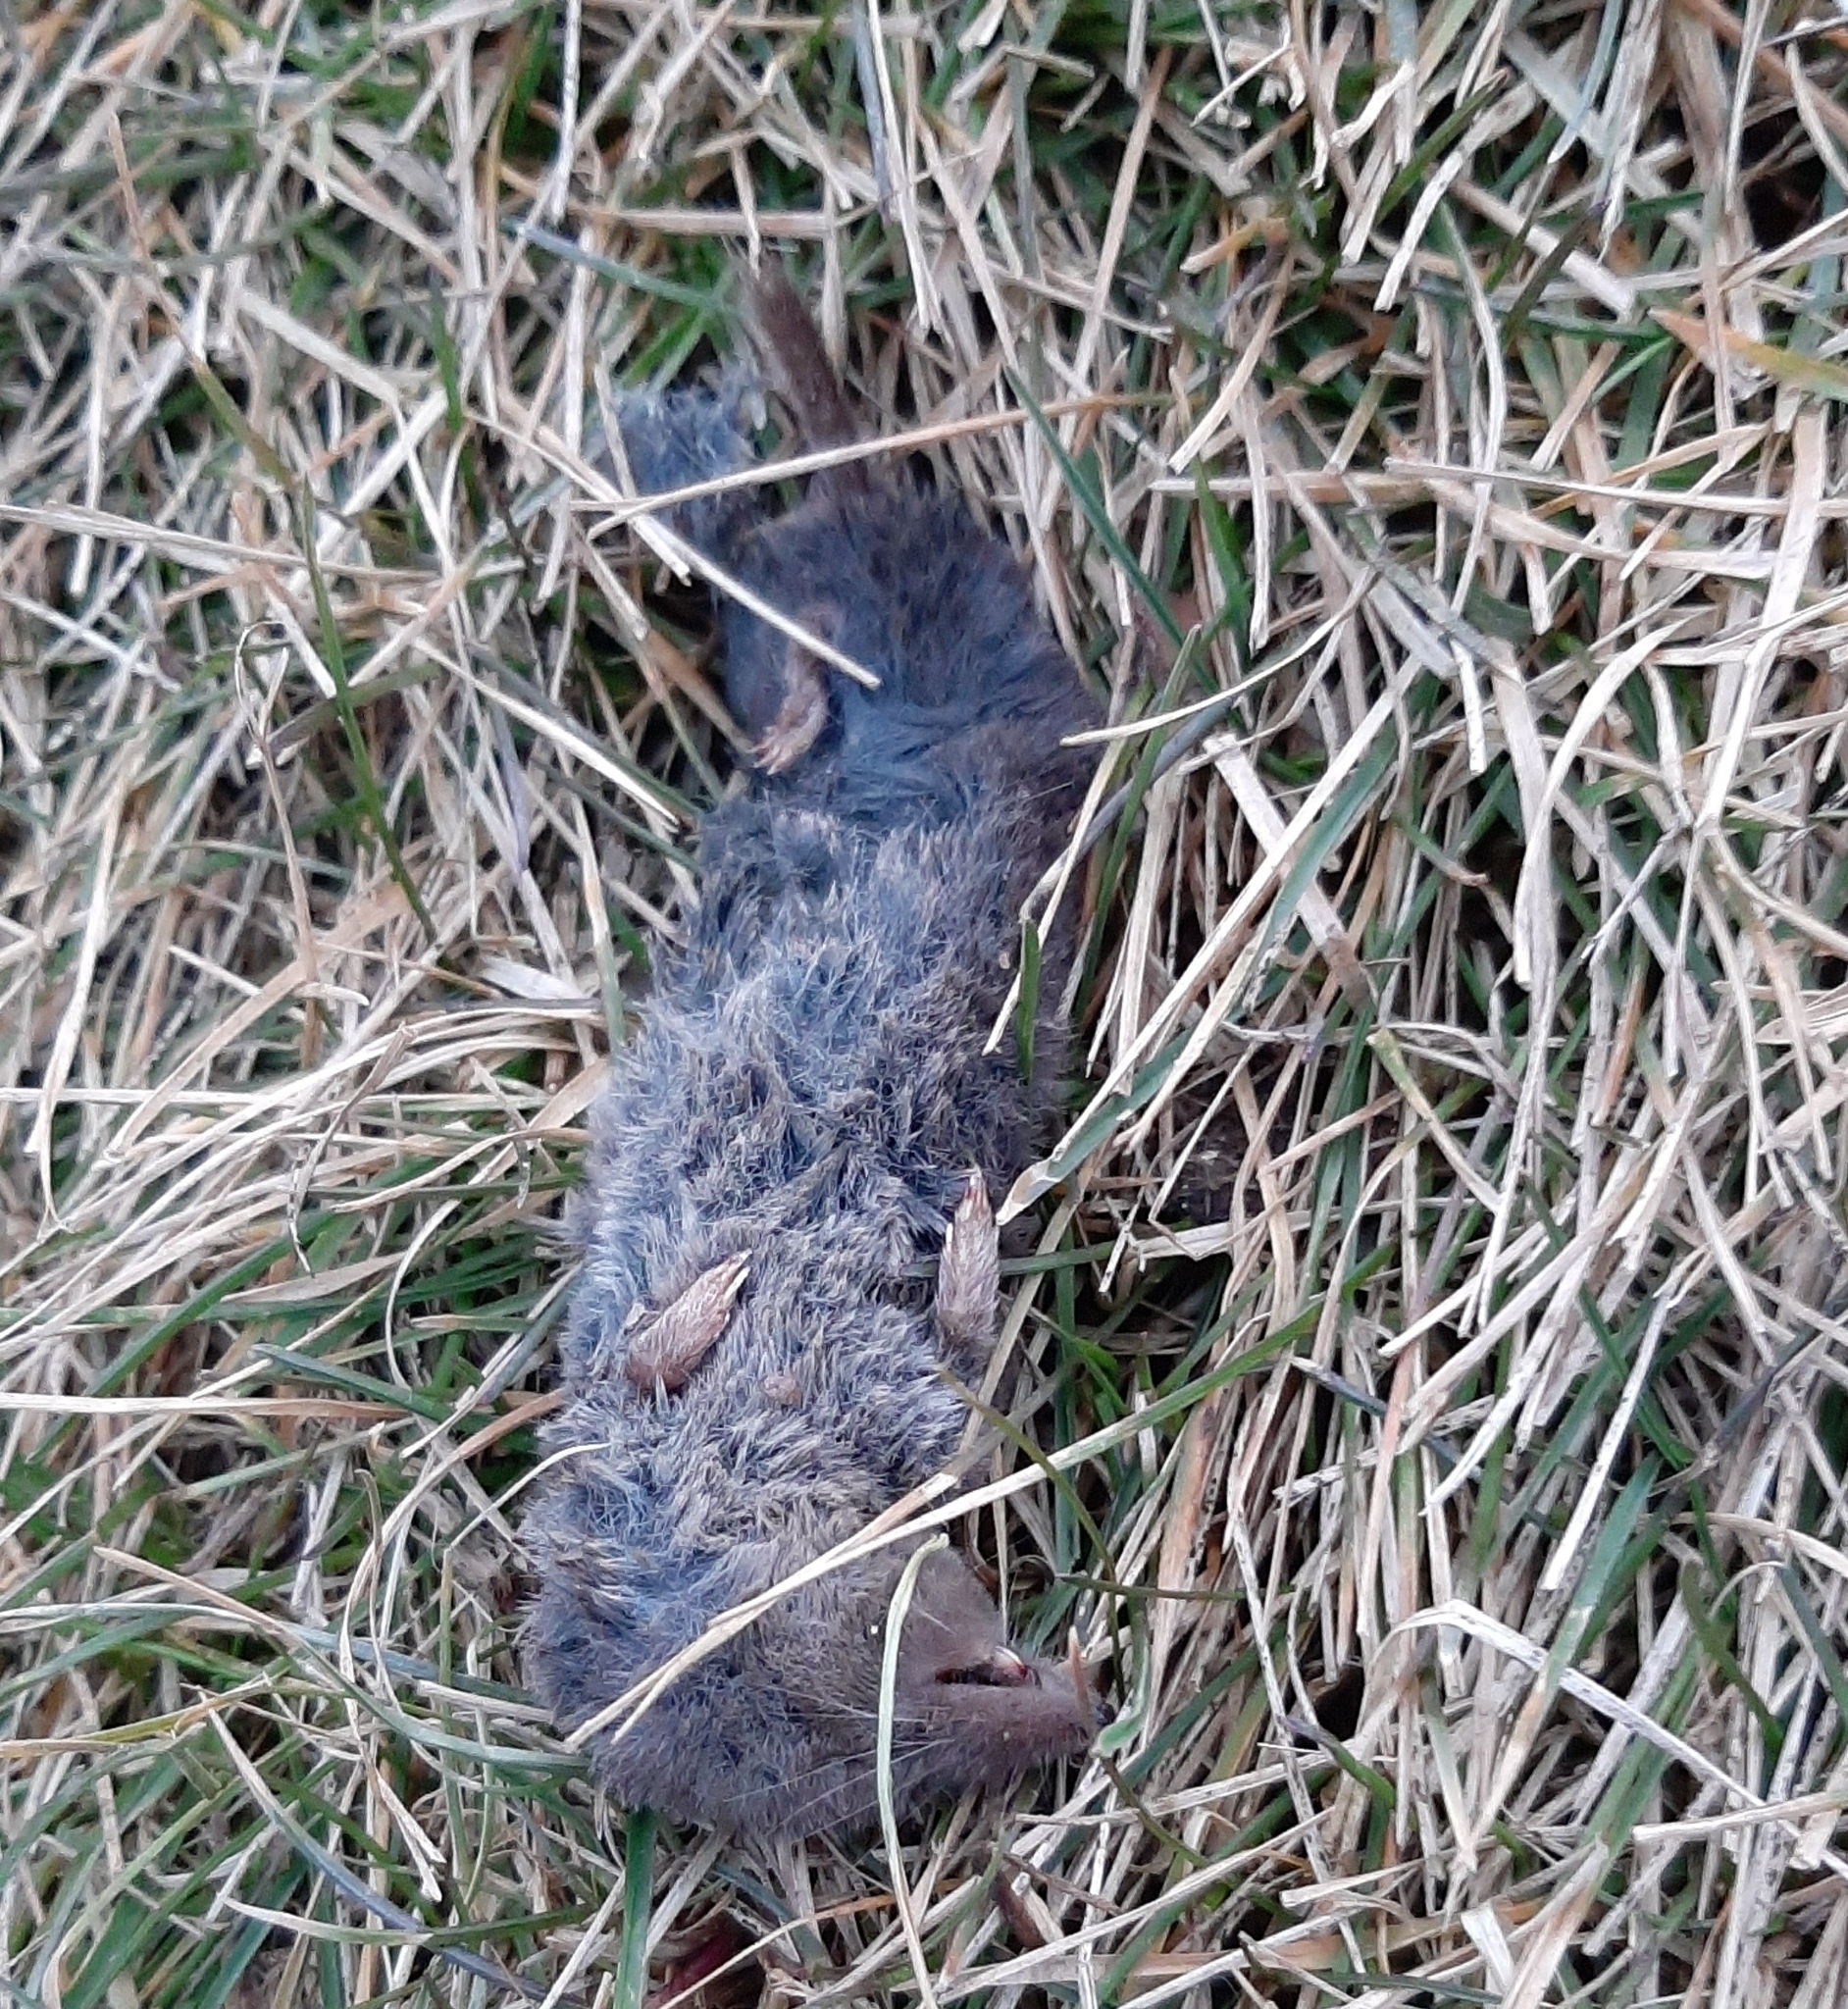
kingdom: Animalia
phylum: Chordata
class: Mammalia
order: Soricomorpha
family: Soricidae
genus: Blarina
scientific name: Blarina brevicauda
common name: Northern short-tailed shrew
